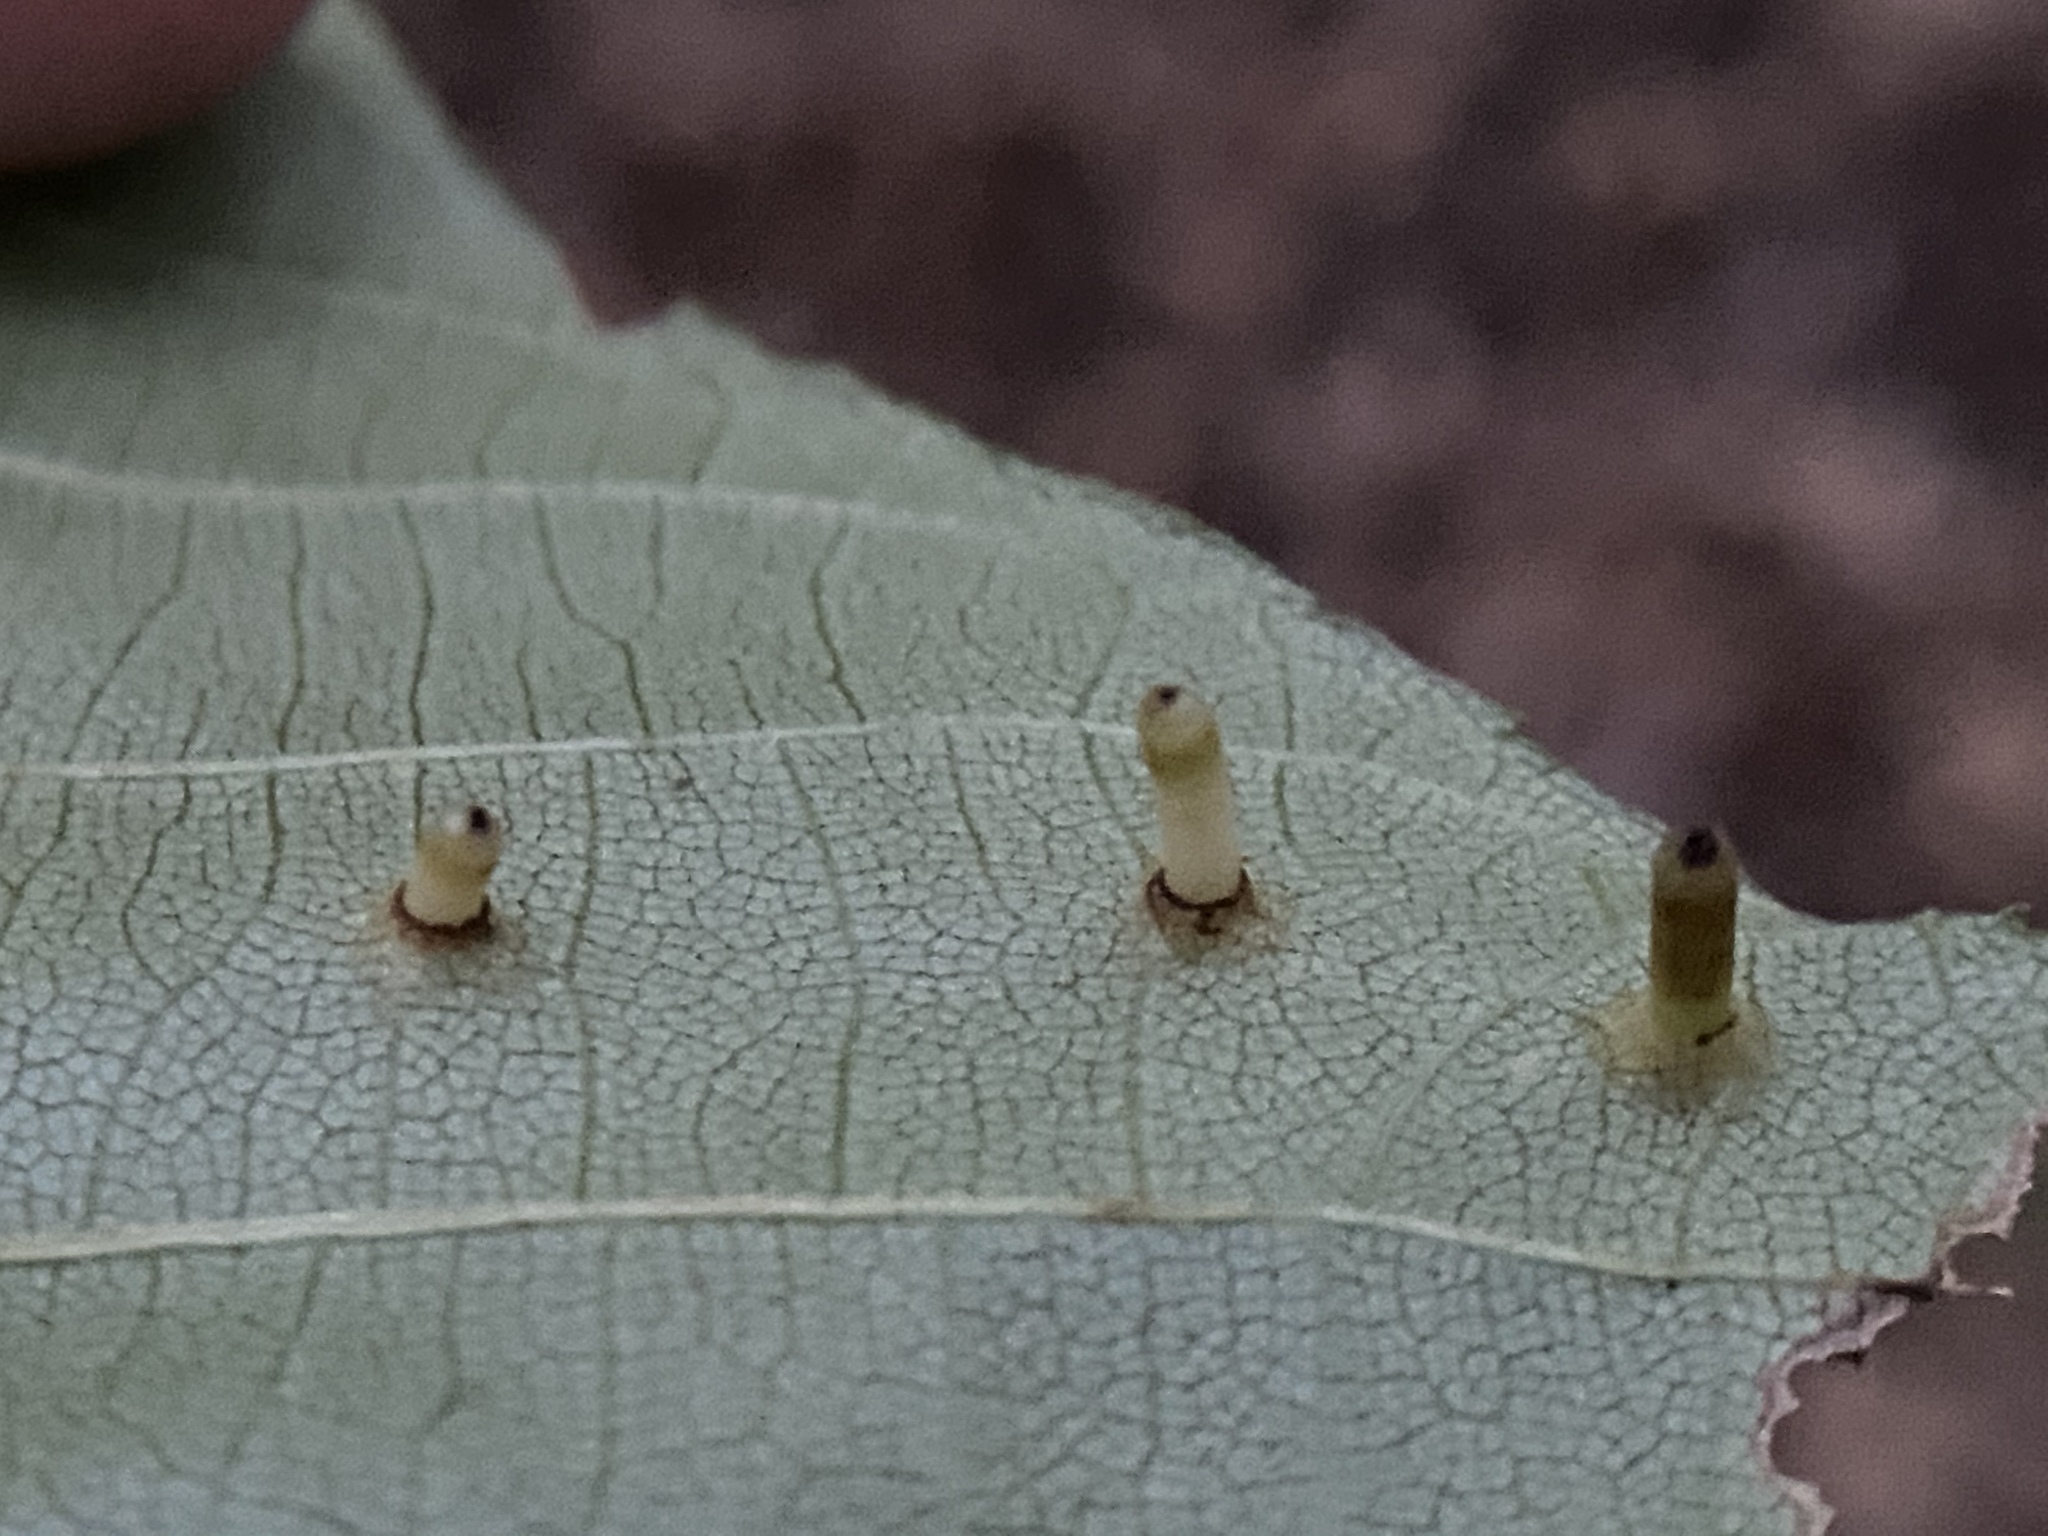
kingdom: Animalia
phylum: Arthropoda
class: Insecta
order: Diptera
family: Cecidomyiidae
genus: Caryomyia
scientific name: Caryomyia tubicola
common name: Hickory bullet gall midge
